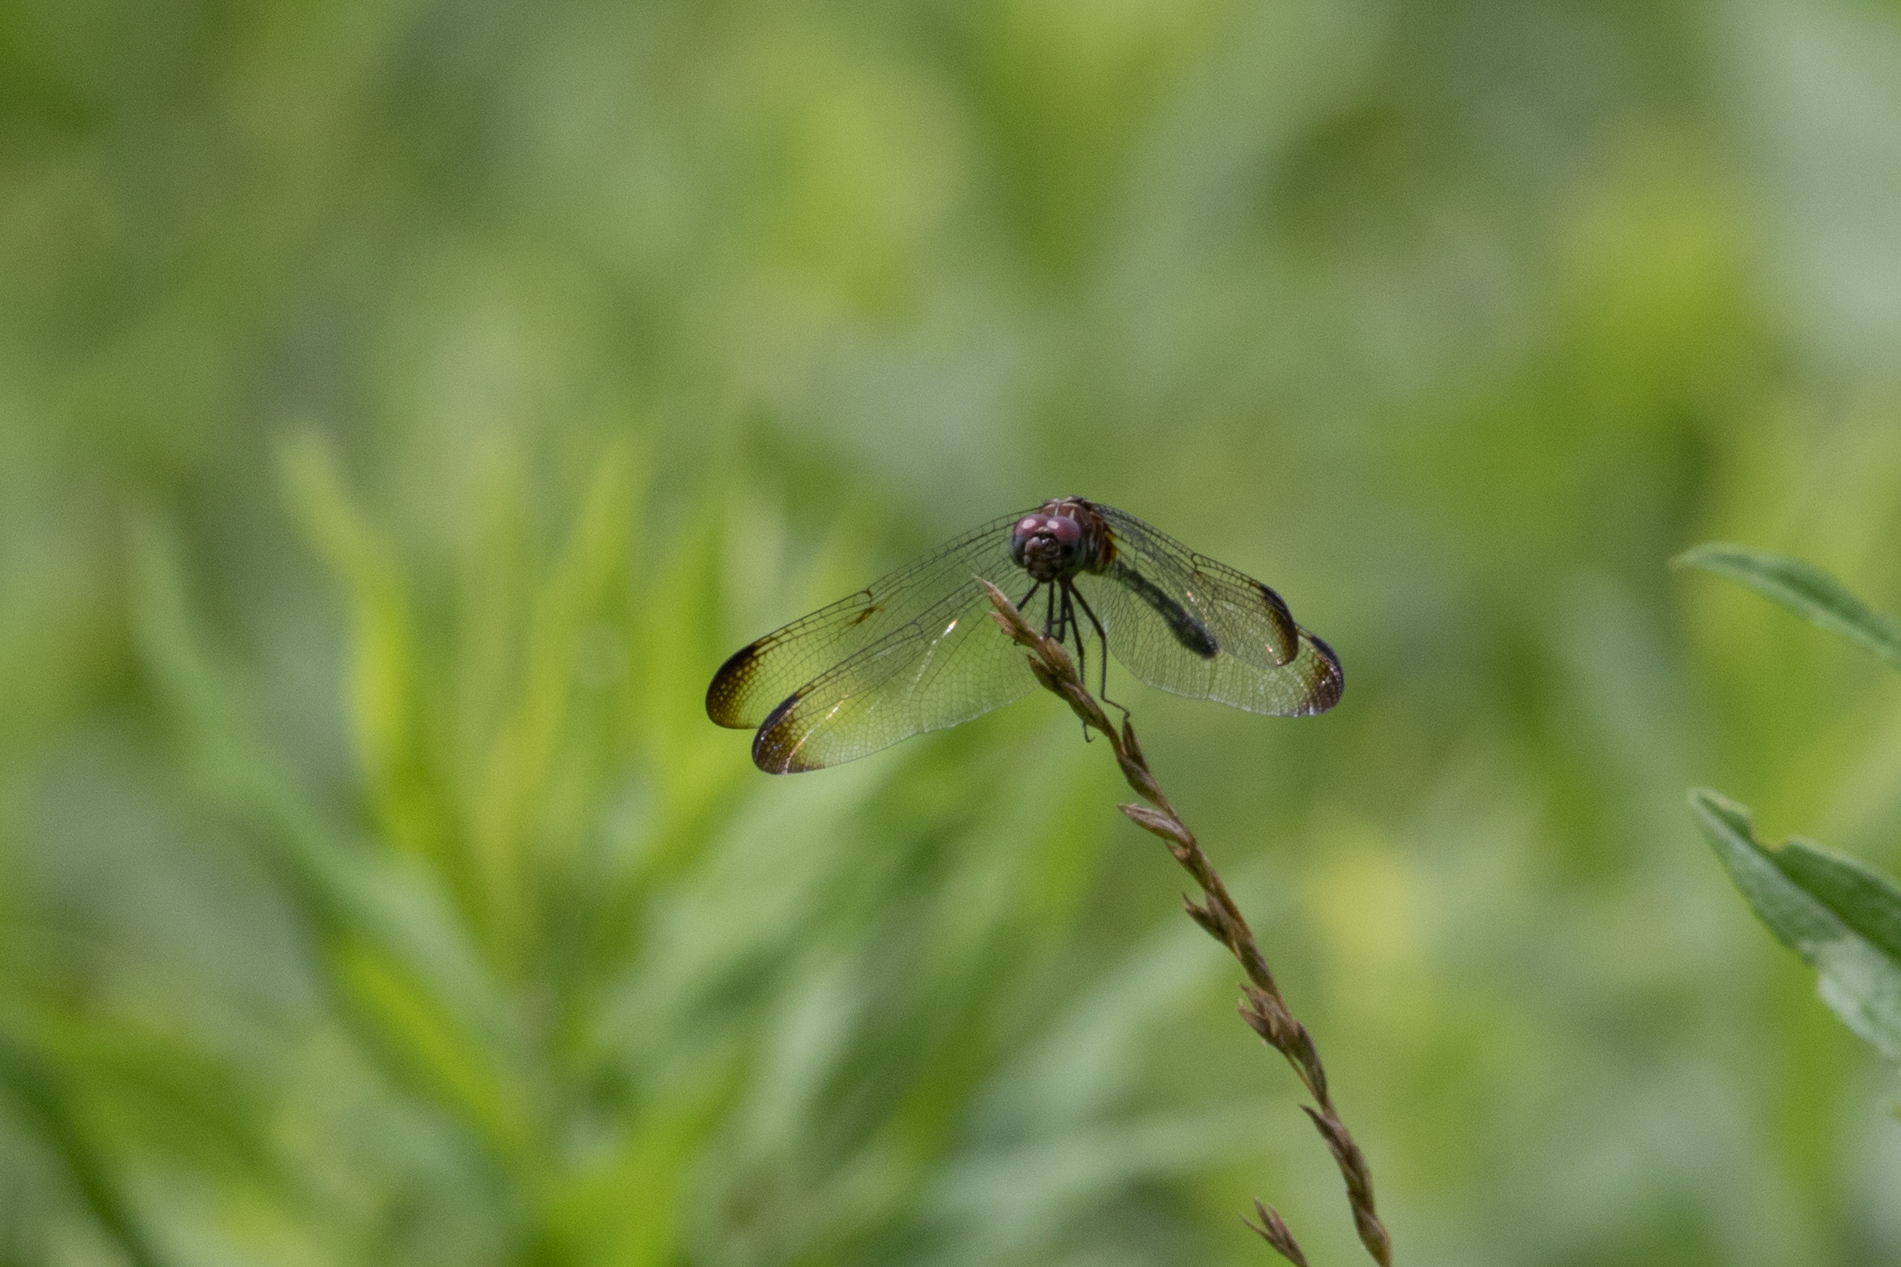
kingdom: Animalia
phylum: Arthropoda
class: Insecta
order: Odonata
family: Libellulidae
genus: Dythemis
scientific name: Dythemis velox
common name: Swift setwing
